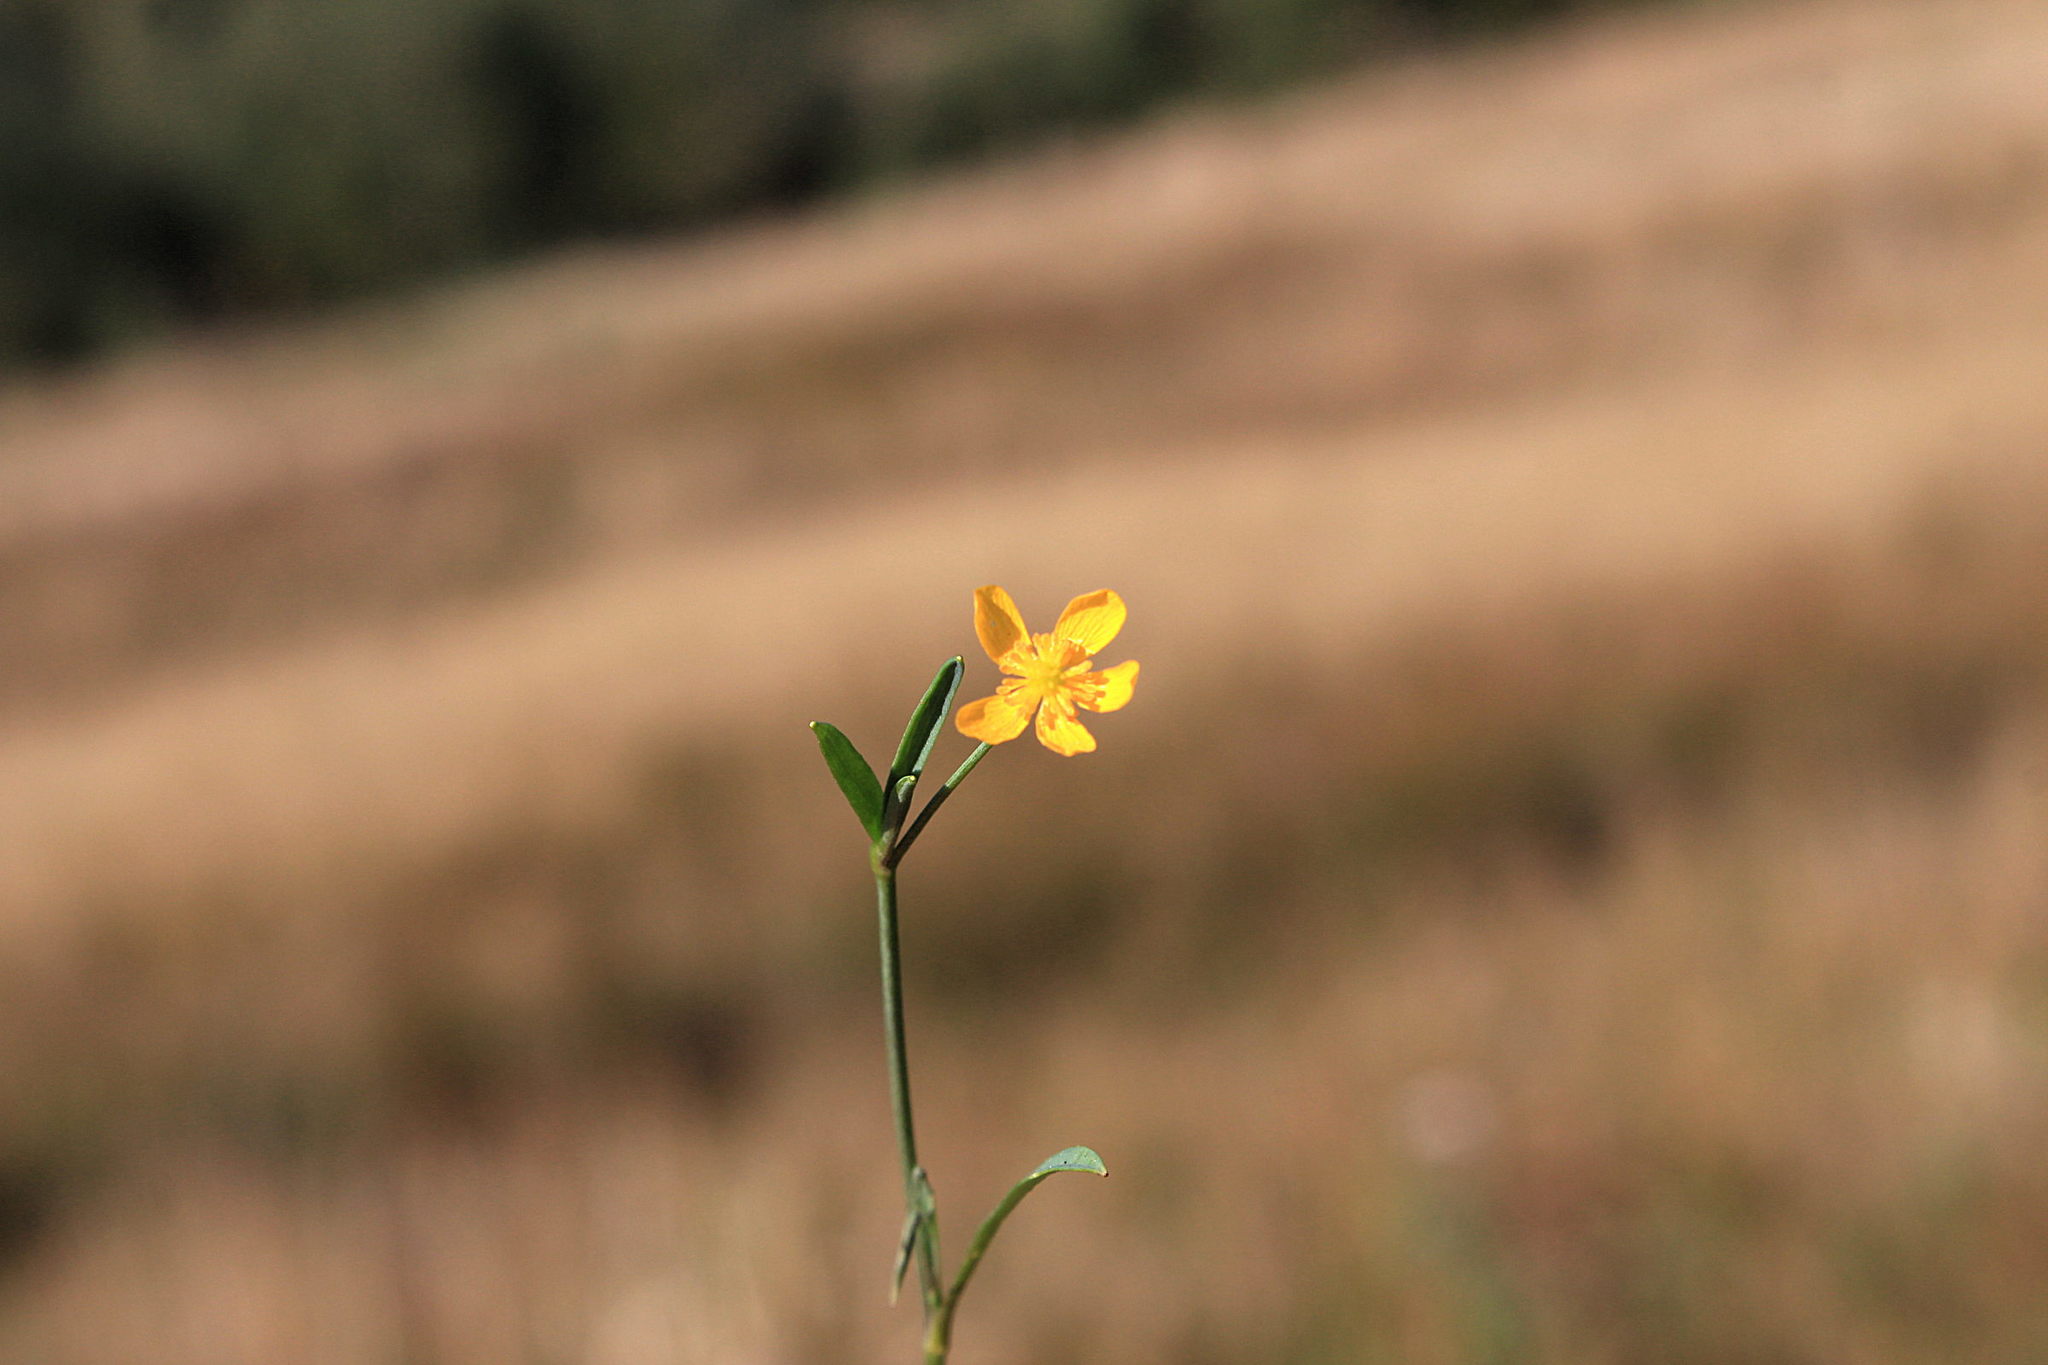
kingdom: Plantae
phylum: Tracheophyta
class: Magnoliopsida
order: Ranunculales
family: Ranunculaceae
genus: Ranunculus
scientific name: Ranunculus flammula
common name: Lesser spearwort
